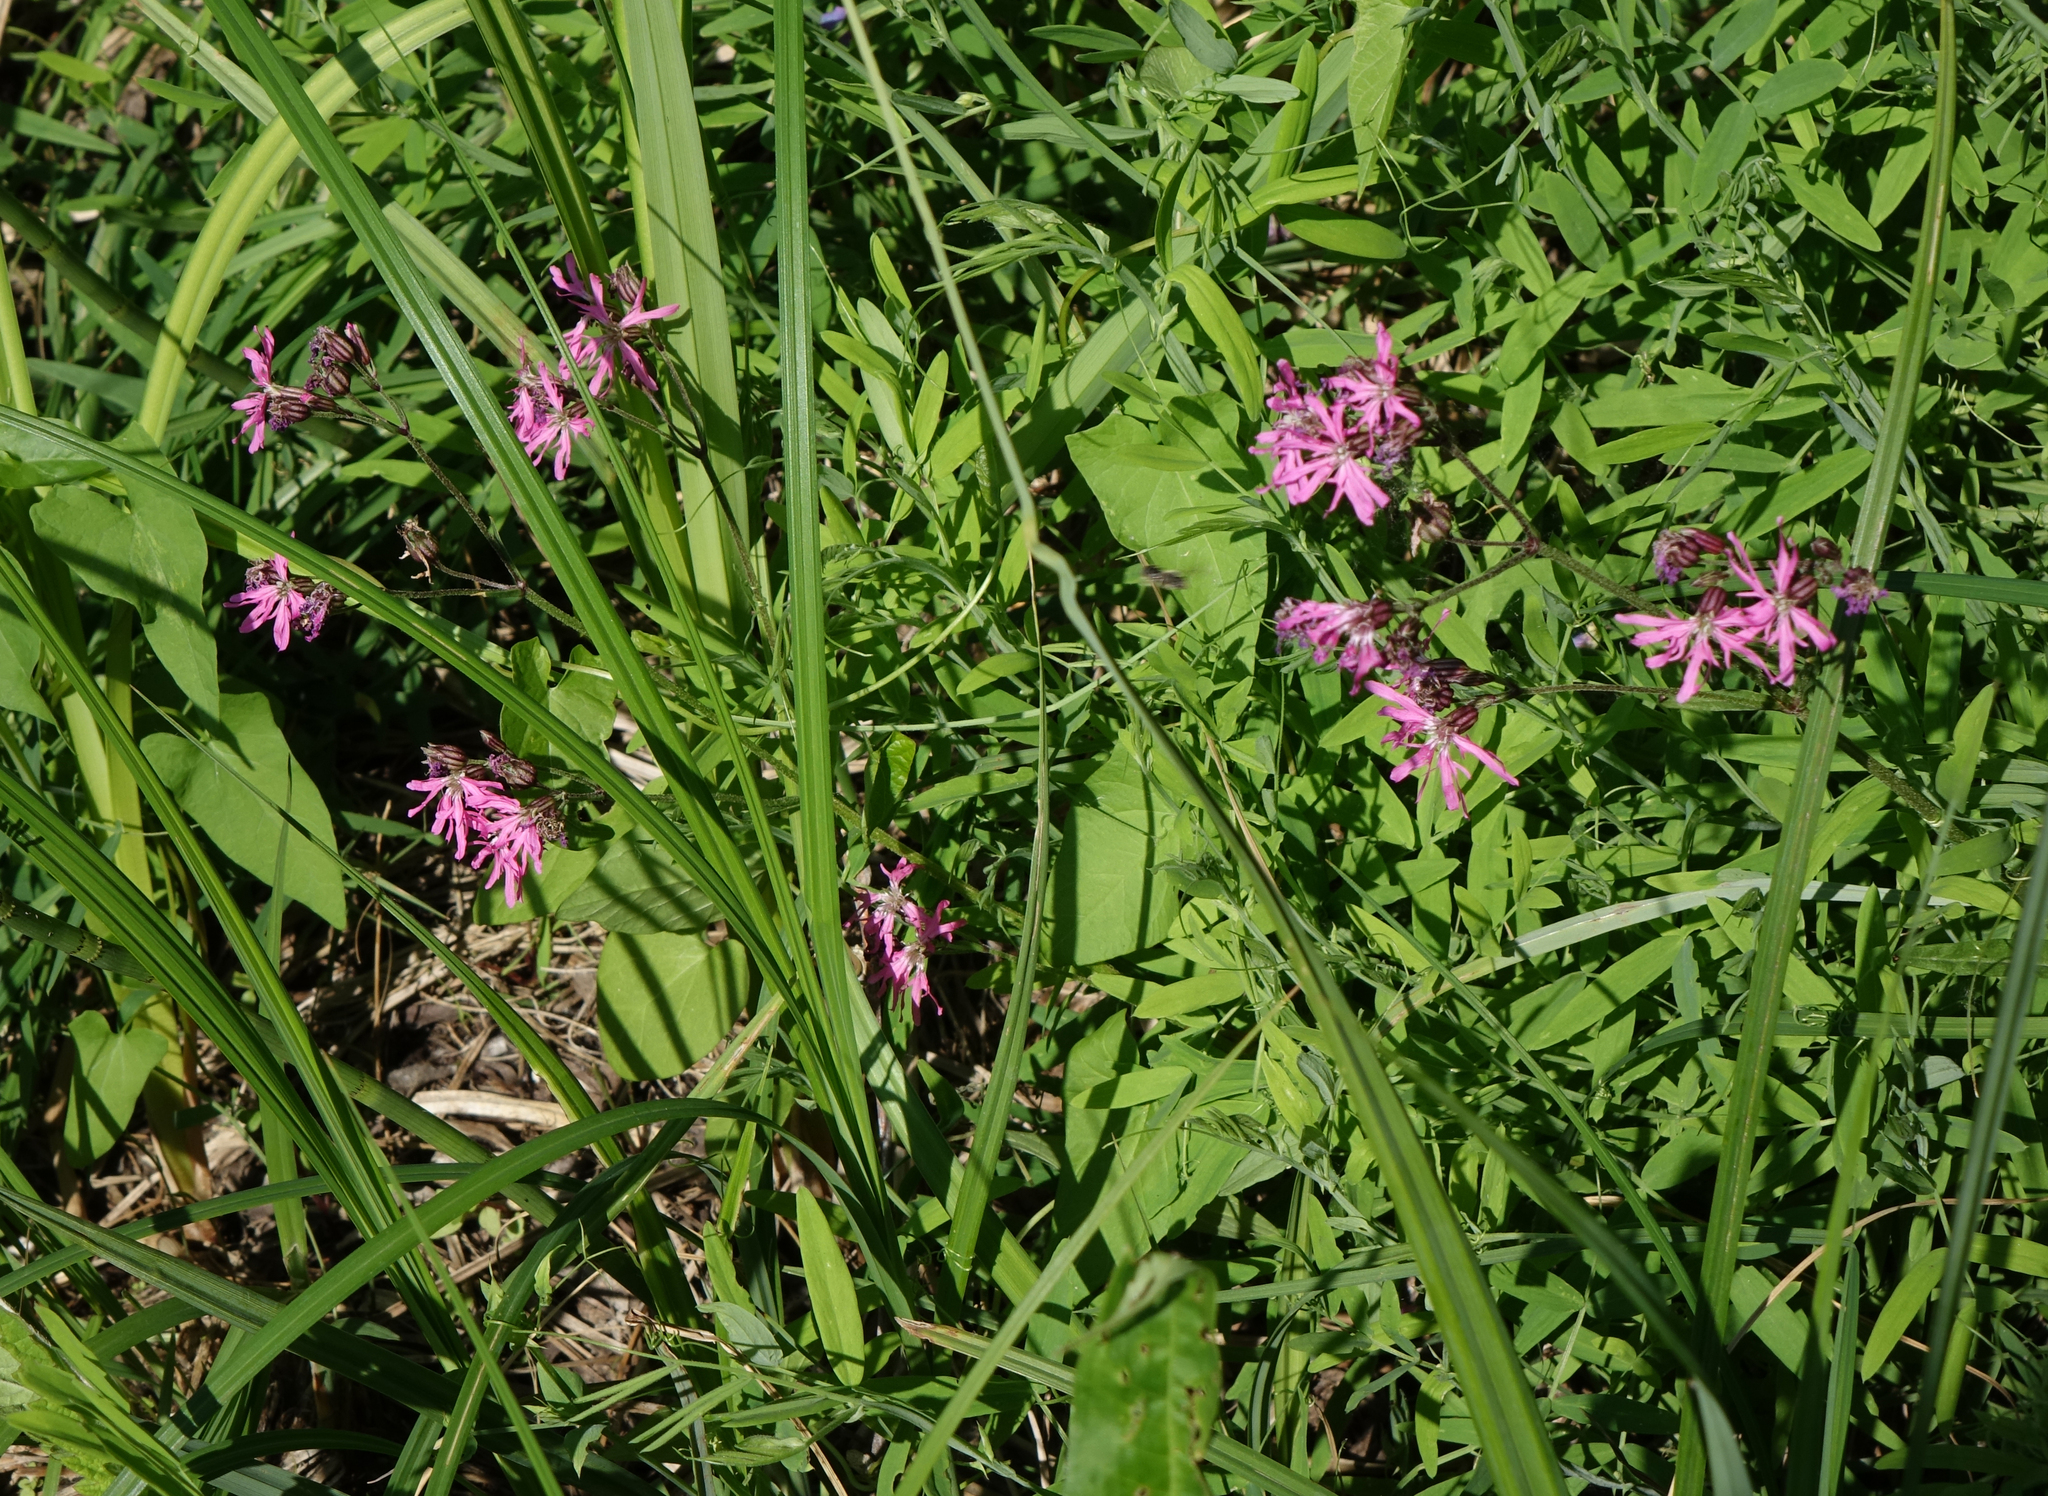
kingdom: Plantae
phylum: Tracheophyta
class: Magnoliopsida
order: Caryophyllales
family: Caryophyllaceae
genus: Silene
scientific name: Silene flos-cuculi
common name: Ragged-robin
